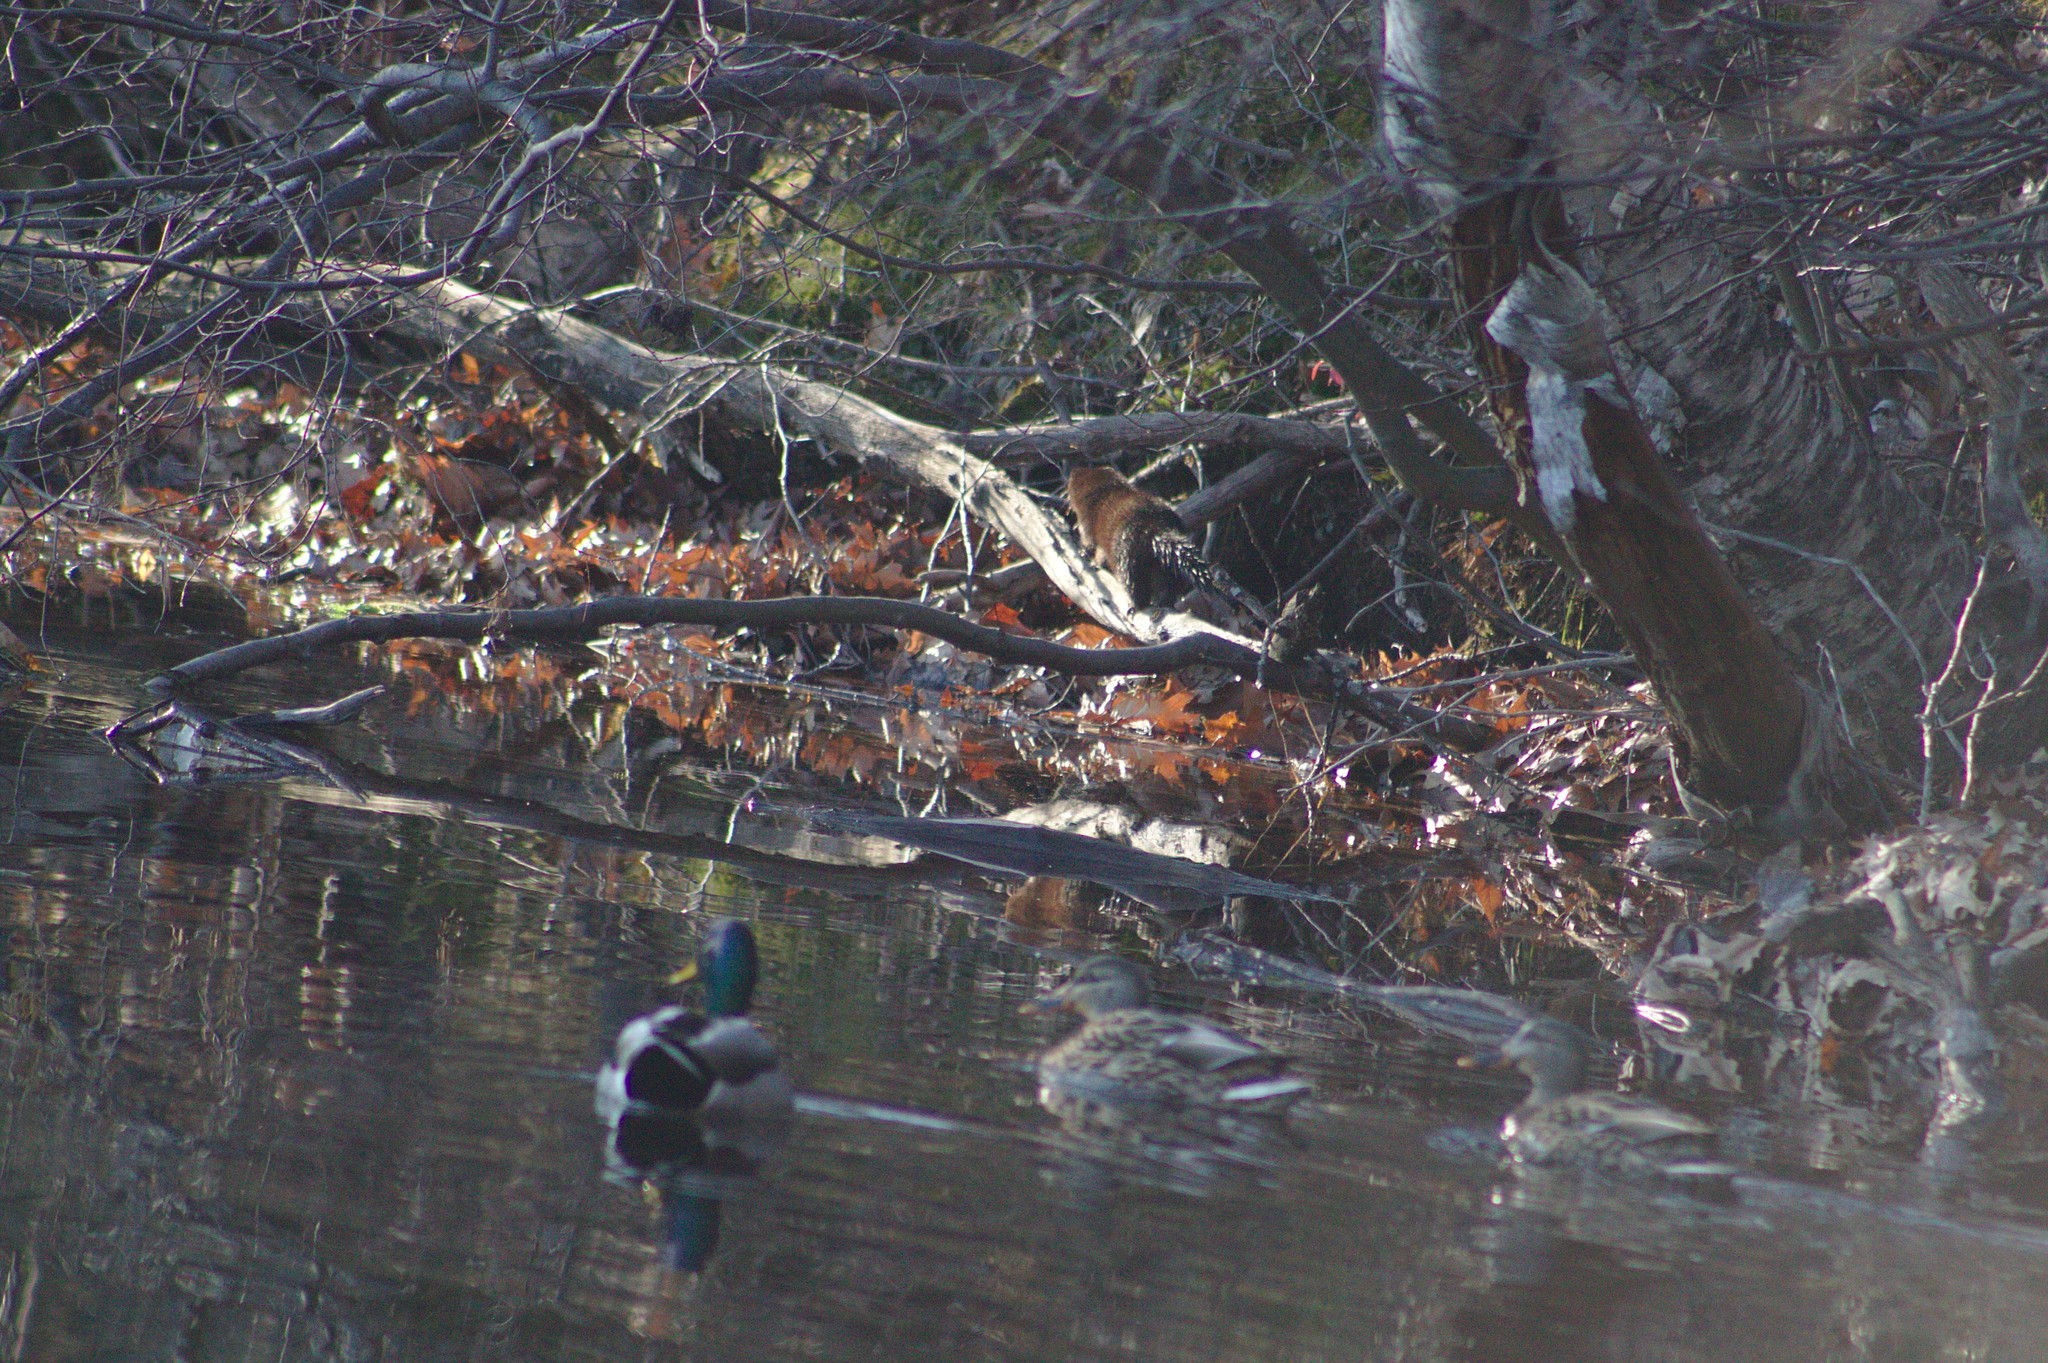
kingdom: Animalia
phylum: Chordata
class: Mammalia
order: Carnivora
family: Mustelidae
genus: Mustela
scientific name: Mustela
